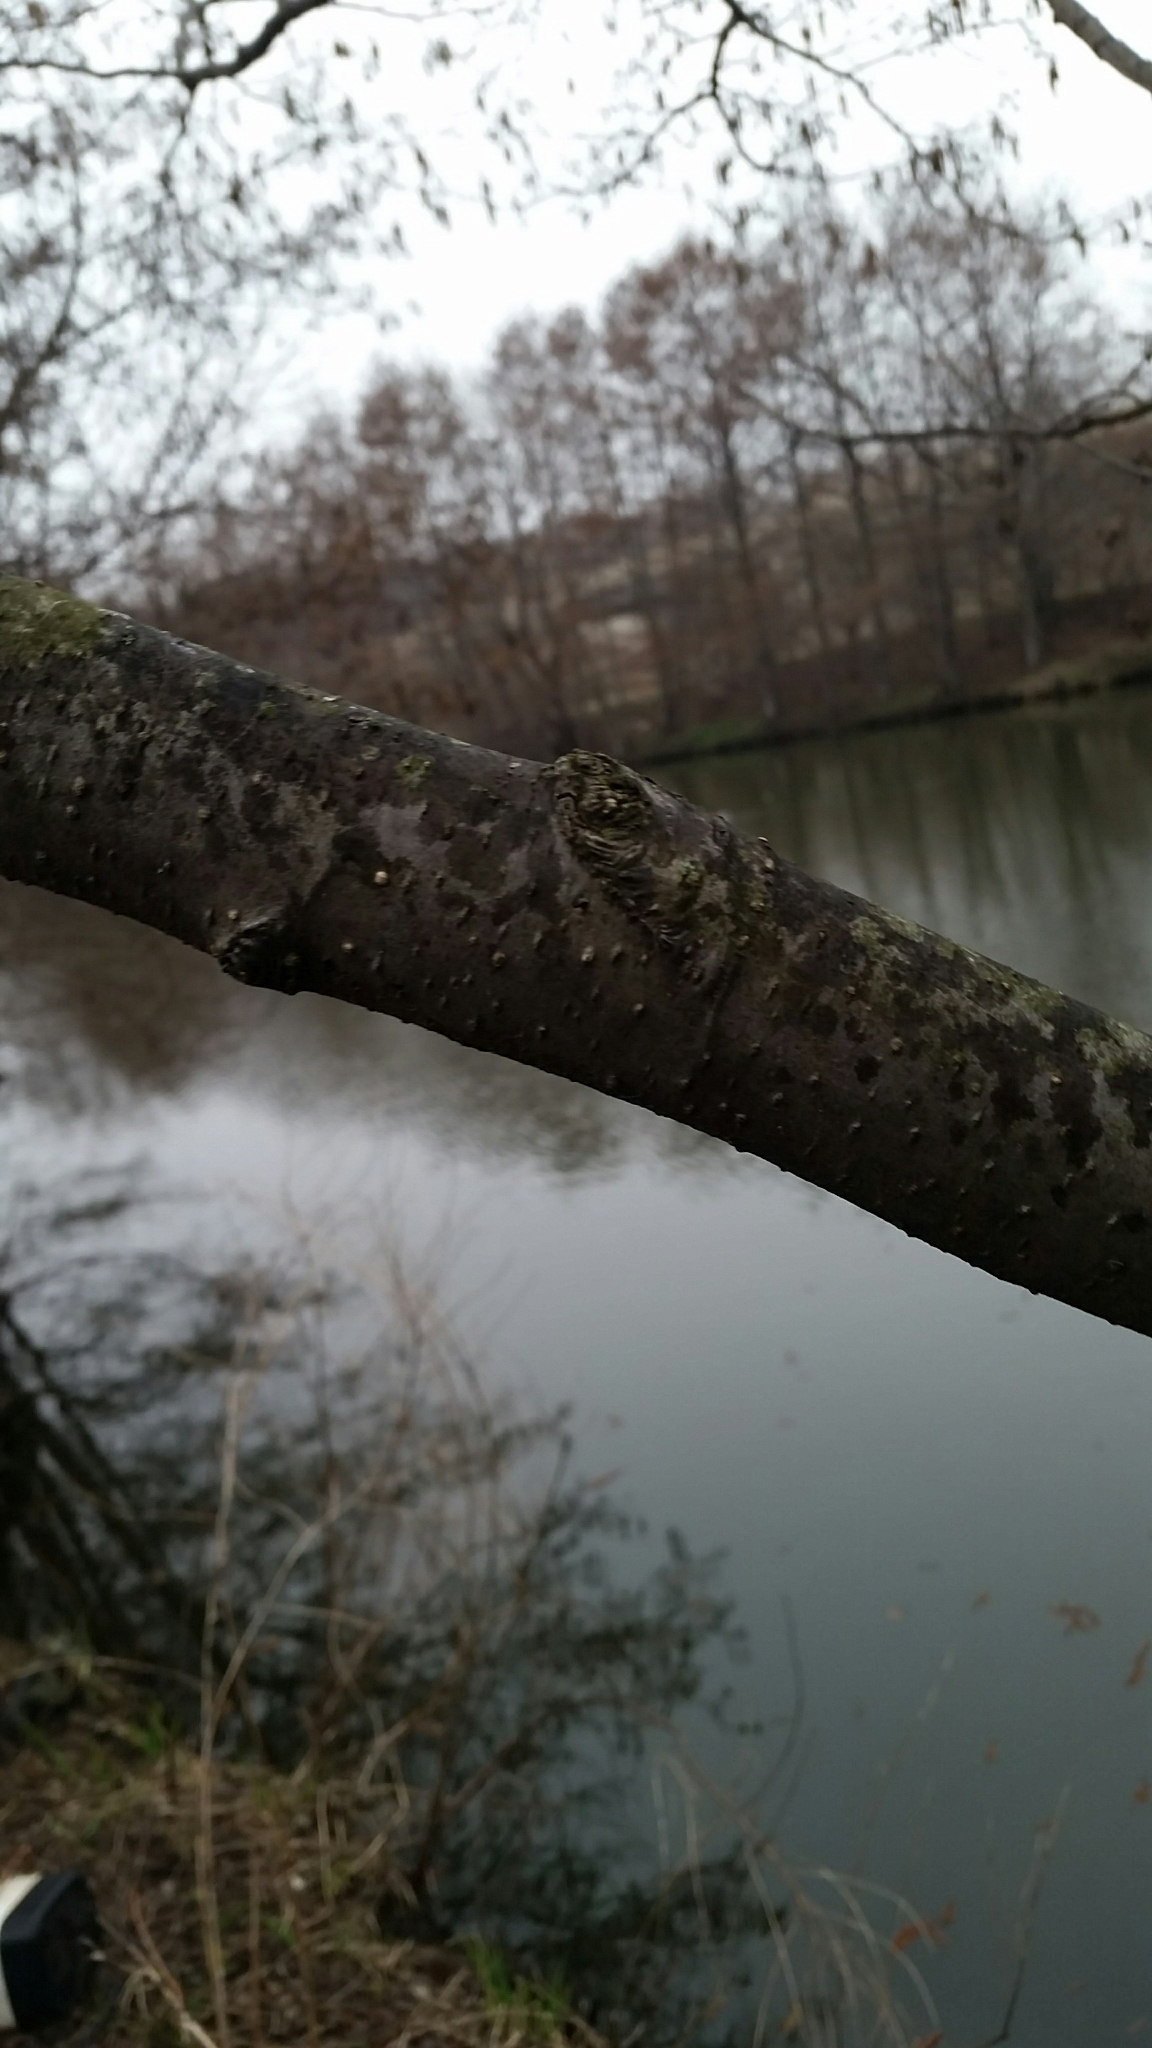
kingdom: Plantae
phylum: Tracheophyta
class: Magnoliopsida
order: Fagales
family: Betulaceae
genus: Alnus
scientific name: Alnus glutinosa
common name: Black alder
